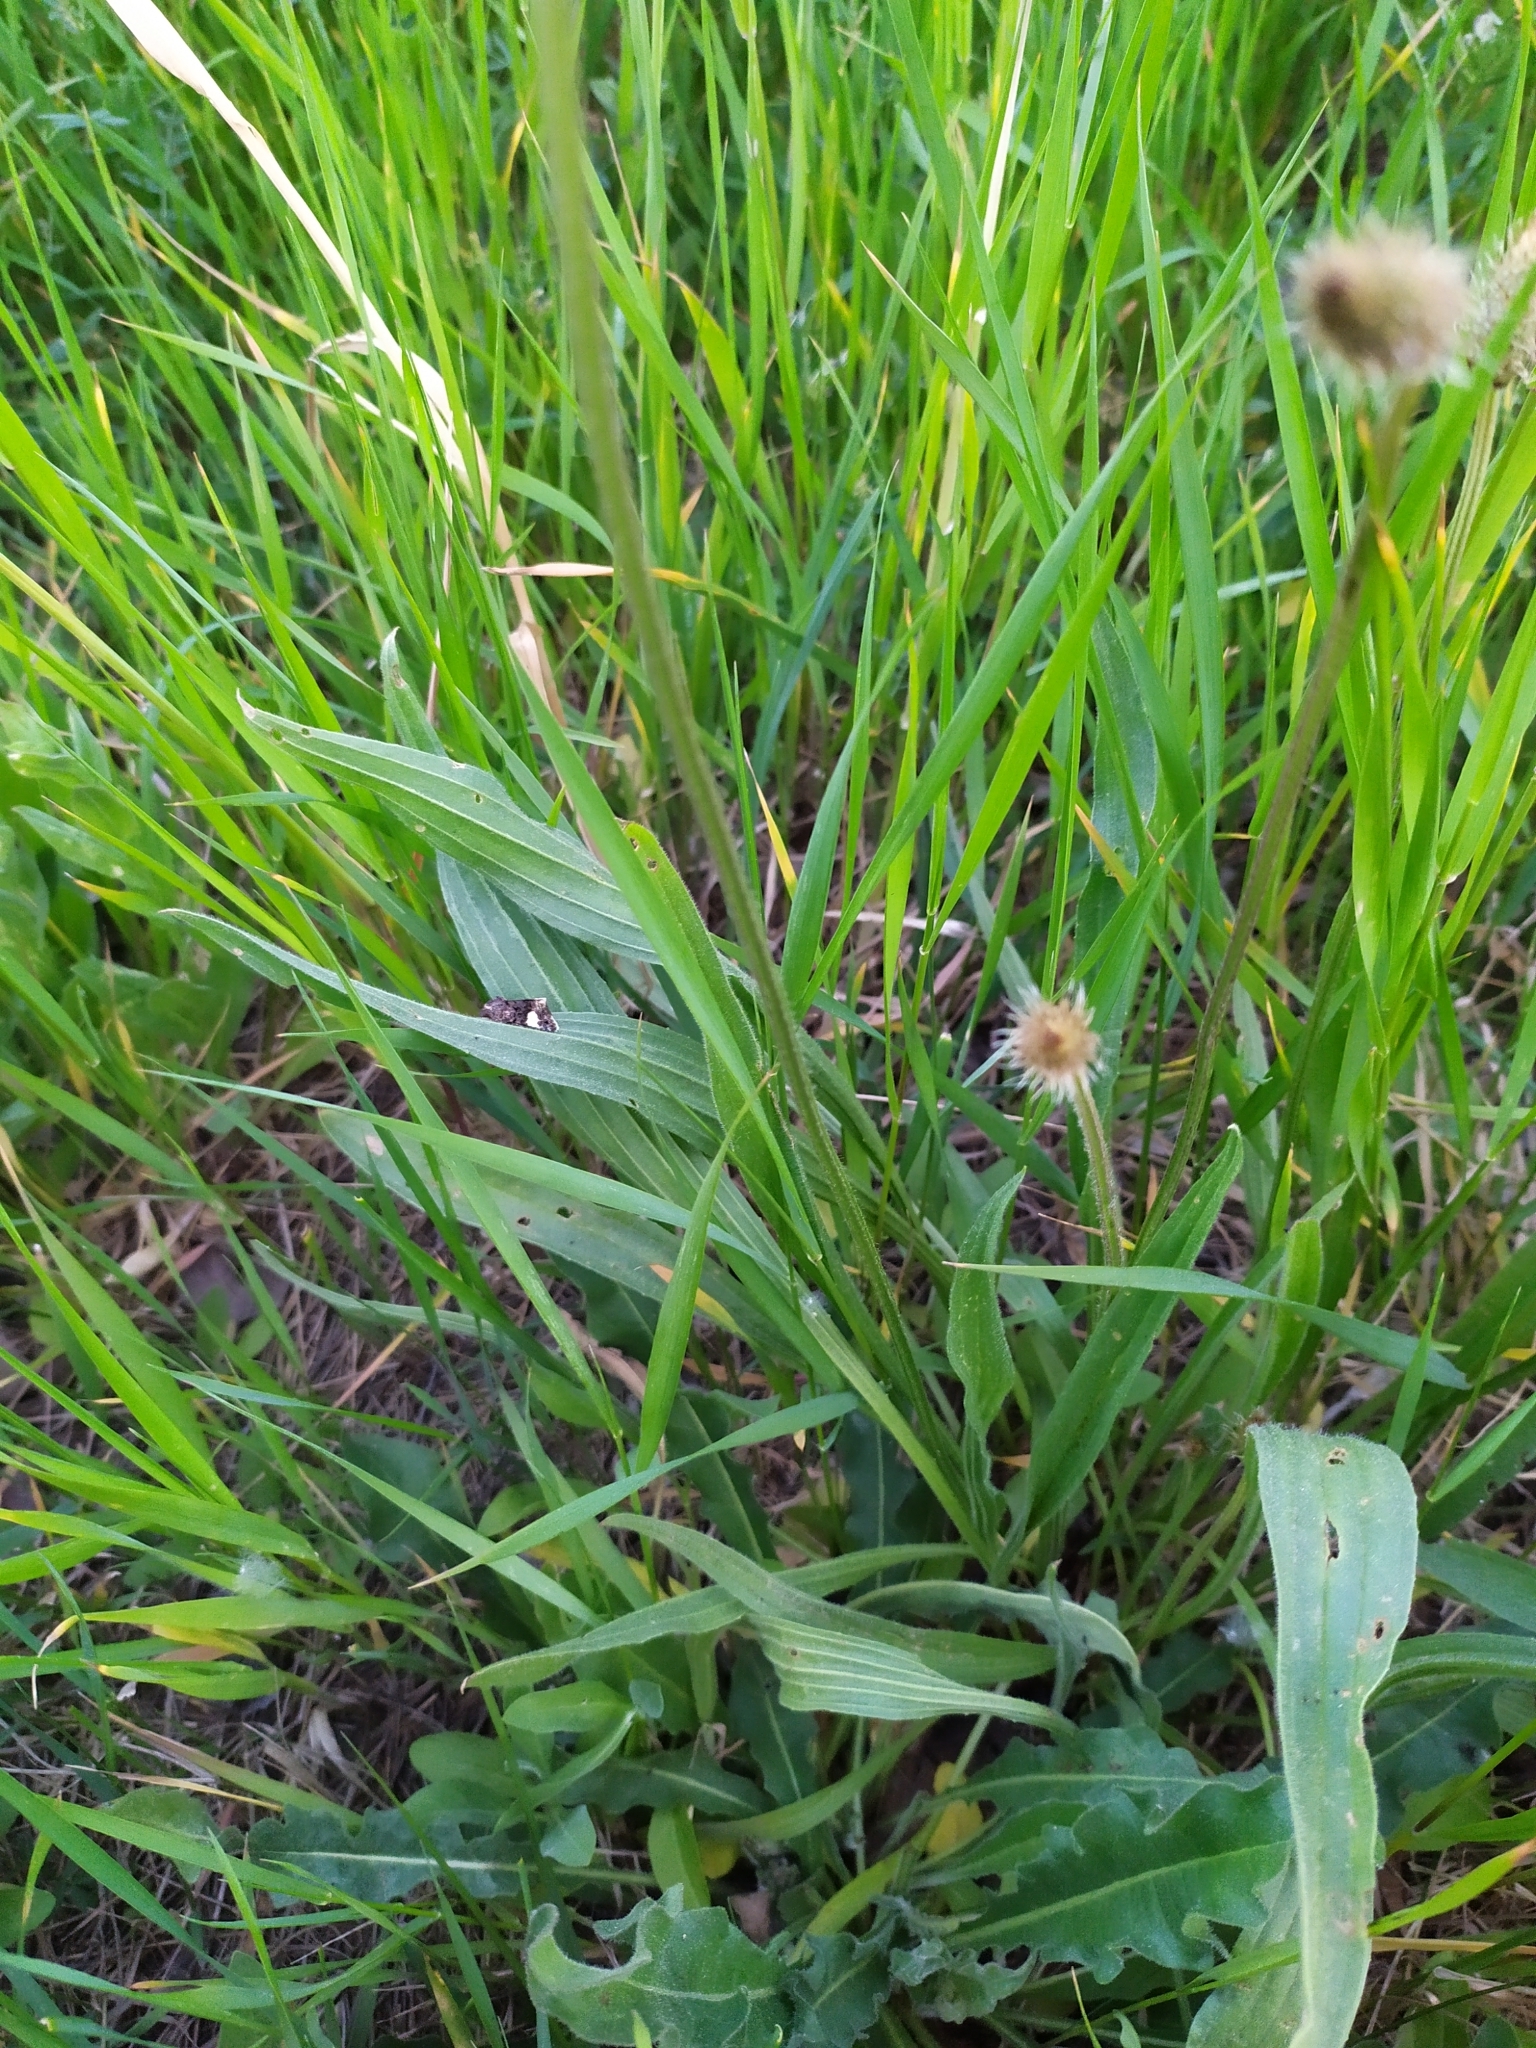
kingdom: Plantae
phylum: Tracheophyta
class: Magnoliopsida
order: Lamiales
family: Plantaginaceae
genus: Plantago
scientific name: Plantago lanceolata
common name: Ribwort plantain
